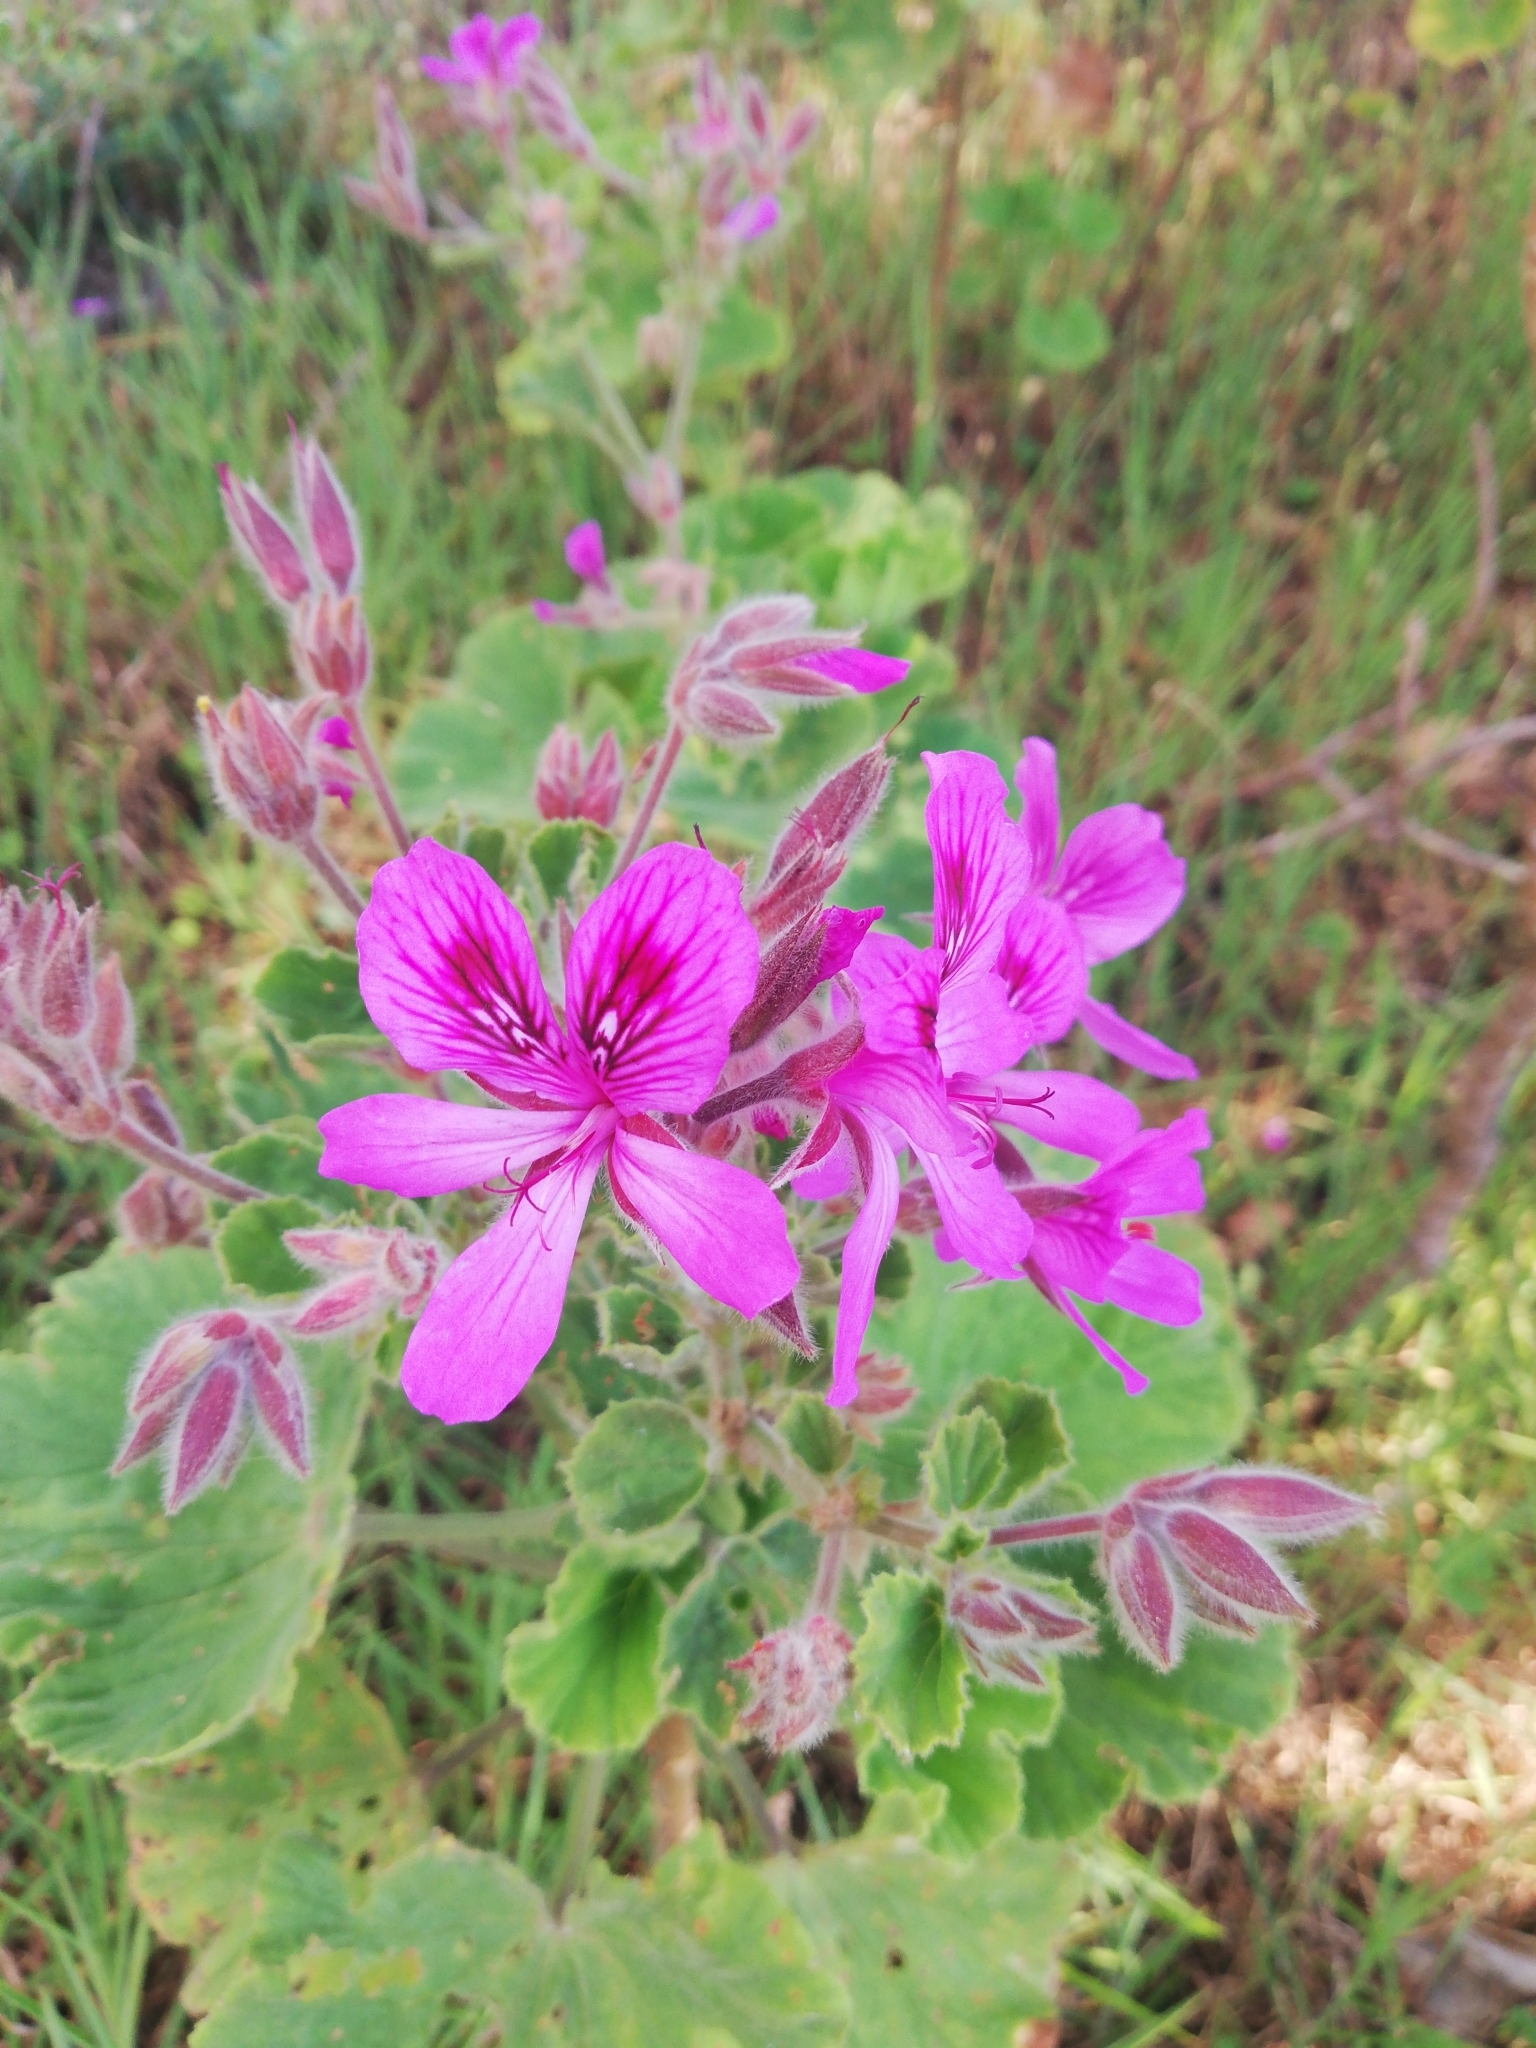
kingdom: Plantae
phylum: Tracheophyta
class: Magnoliopsida
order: Geraniales
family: Geraniaceae
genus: Pelargonium
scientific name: Pelargonium cucullatum
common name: Tree pelargonium
